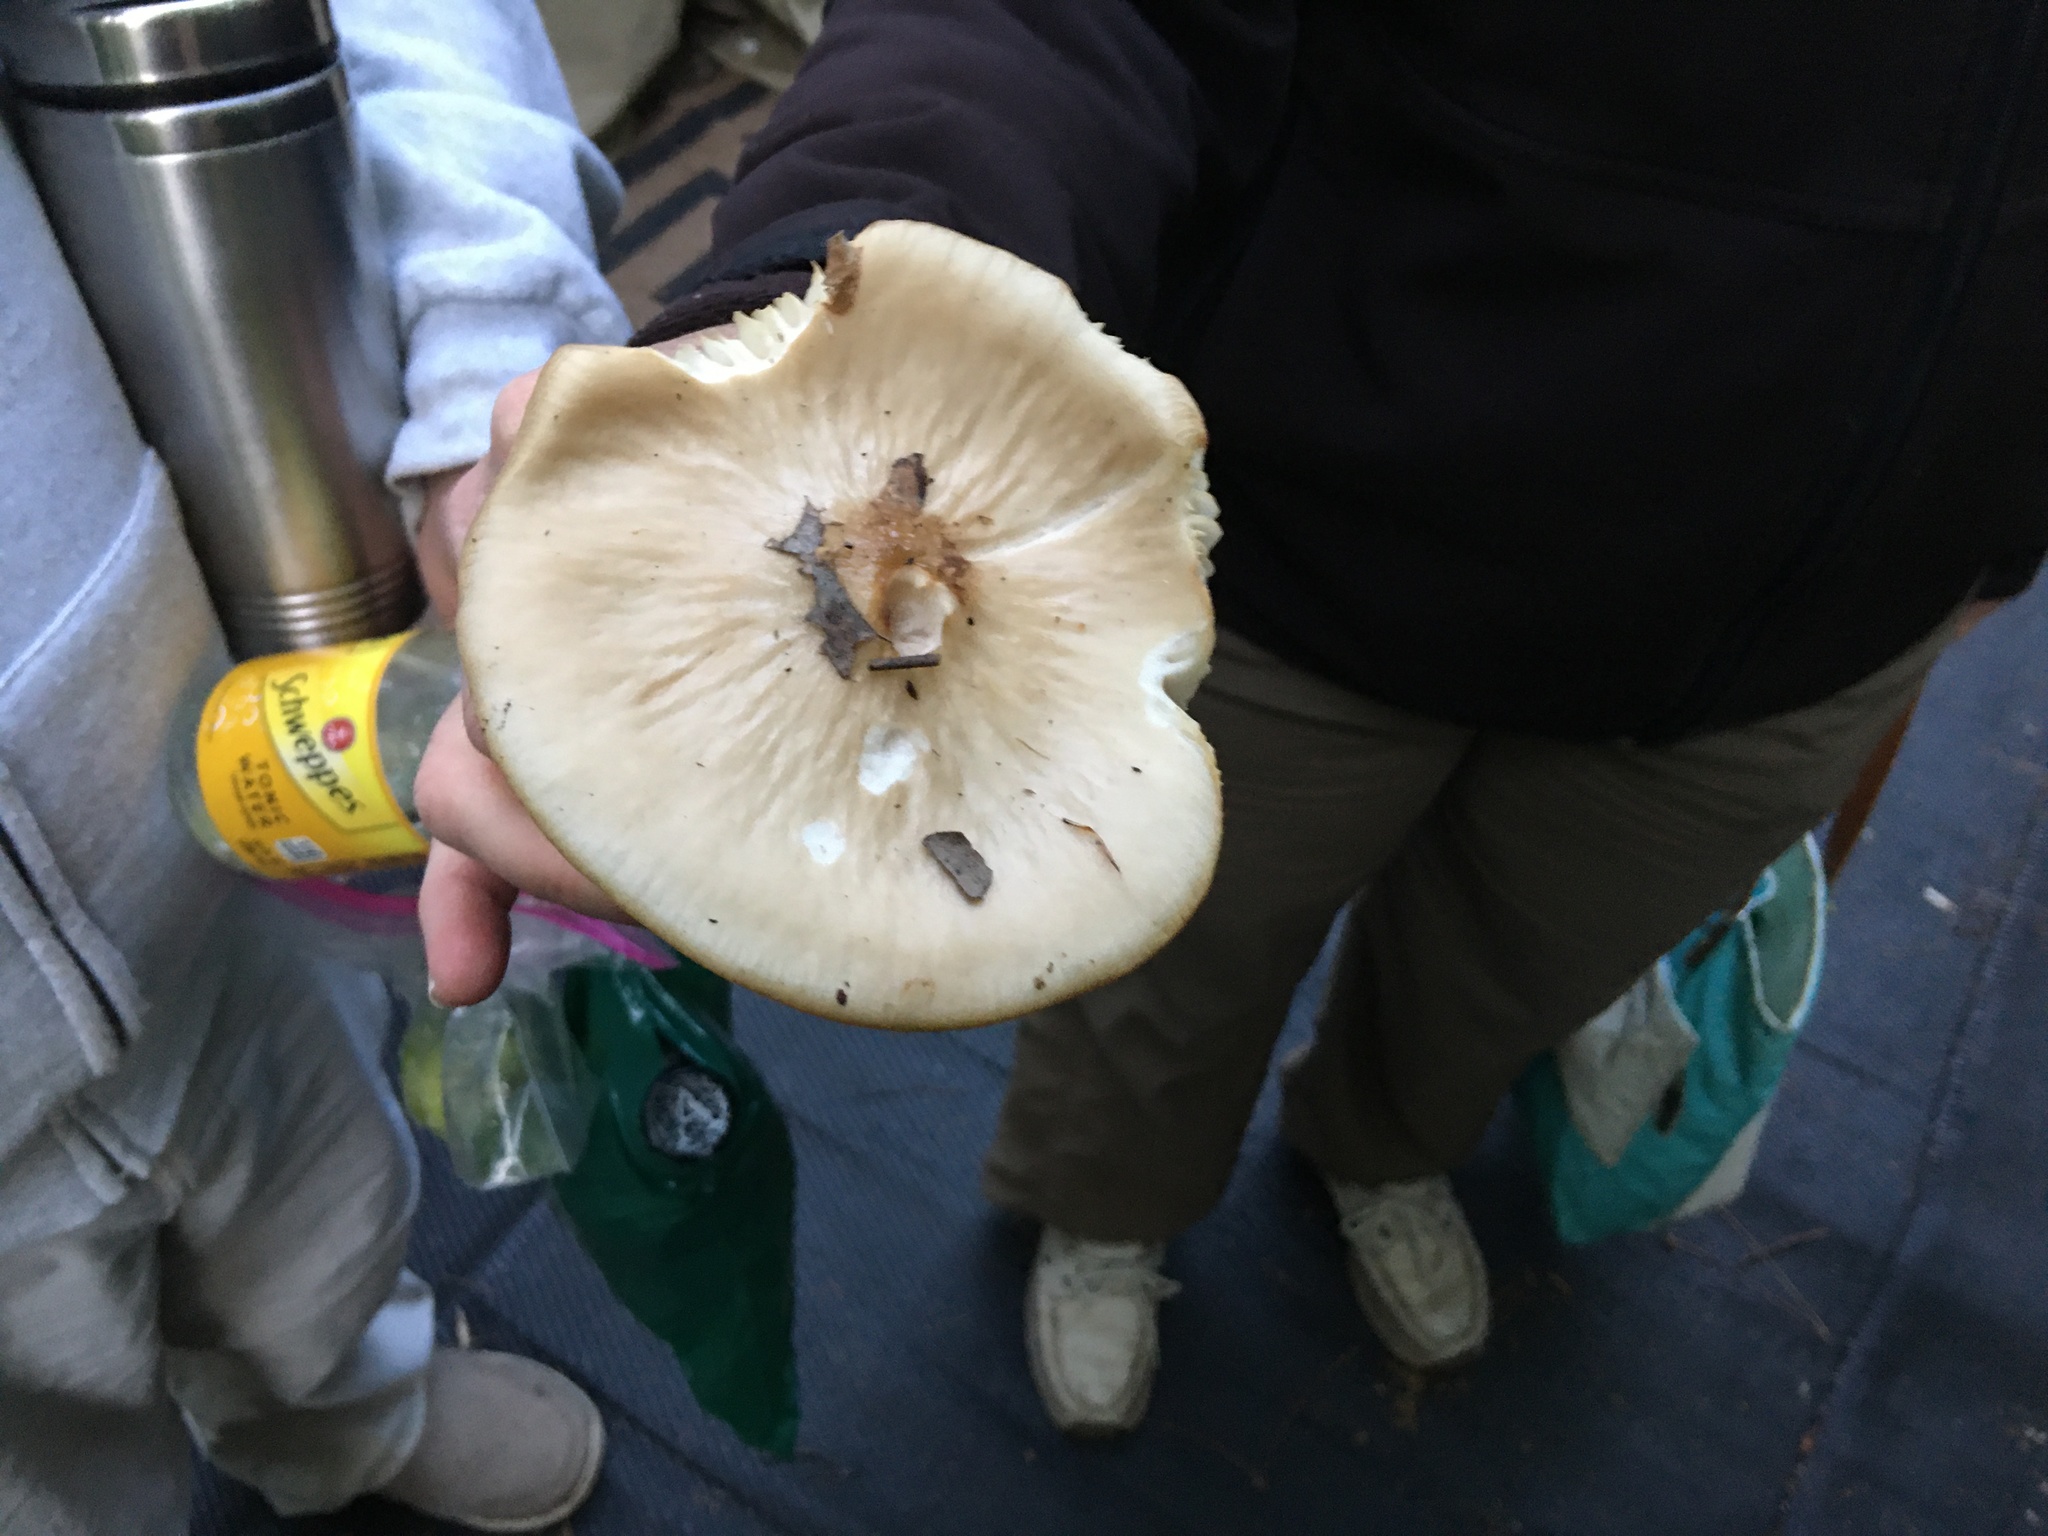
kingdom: Fungi
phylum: Basidiomycota
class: Agaricomycetes
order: Agaricales
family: Physalacriaceae
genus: Hymenopellis
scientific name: Hymenopellis furfuracea
